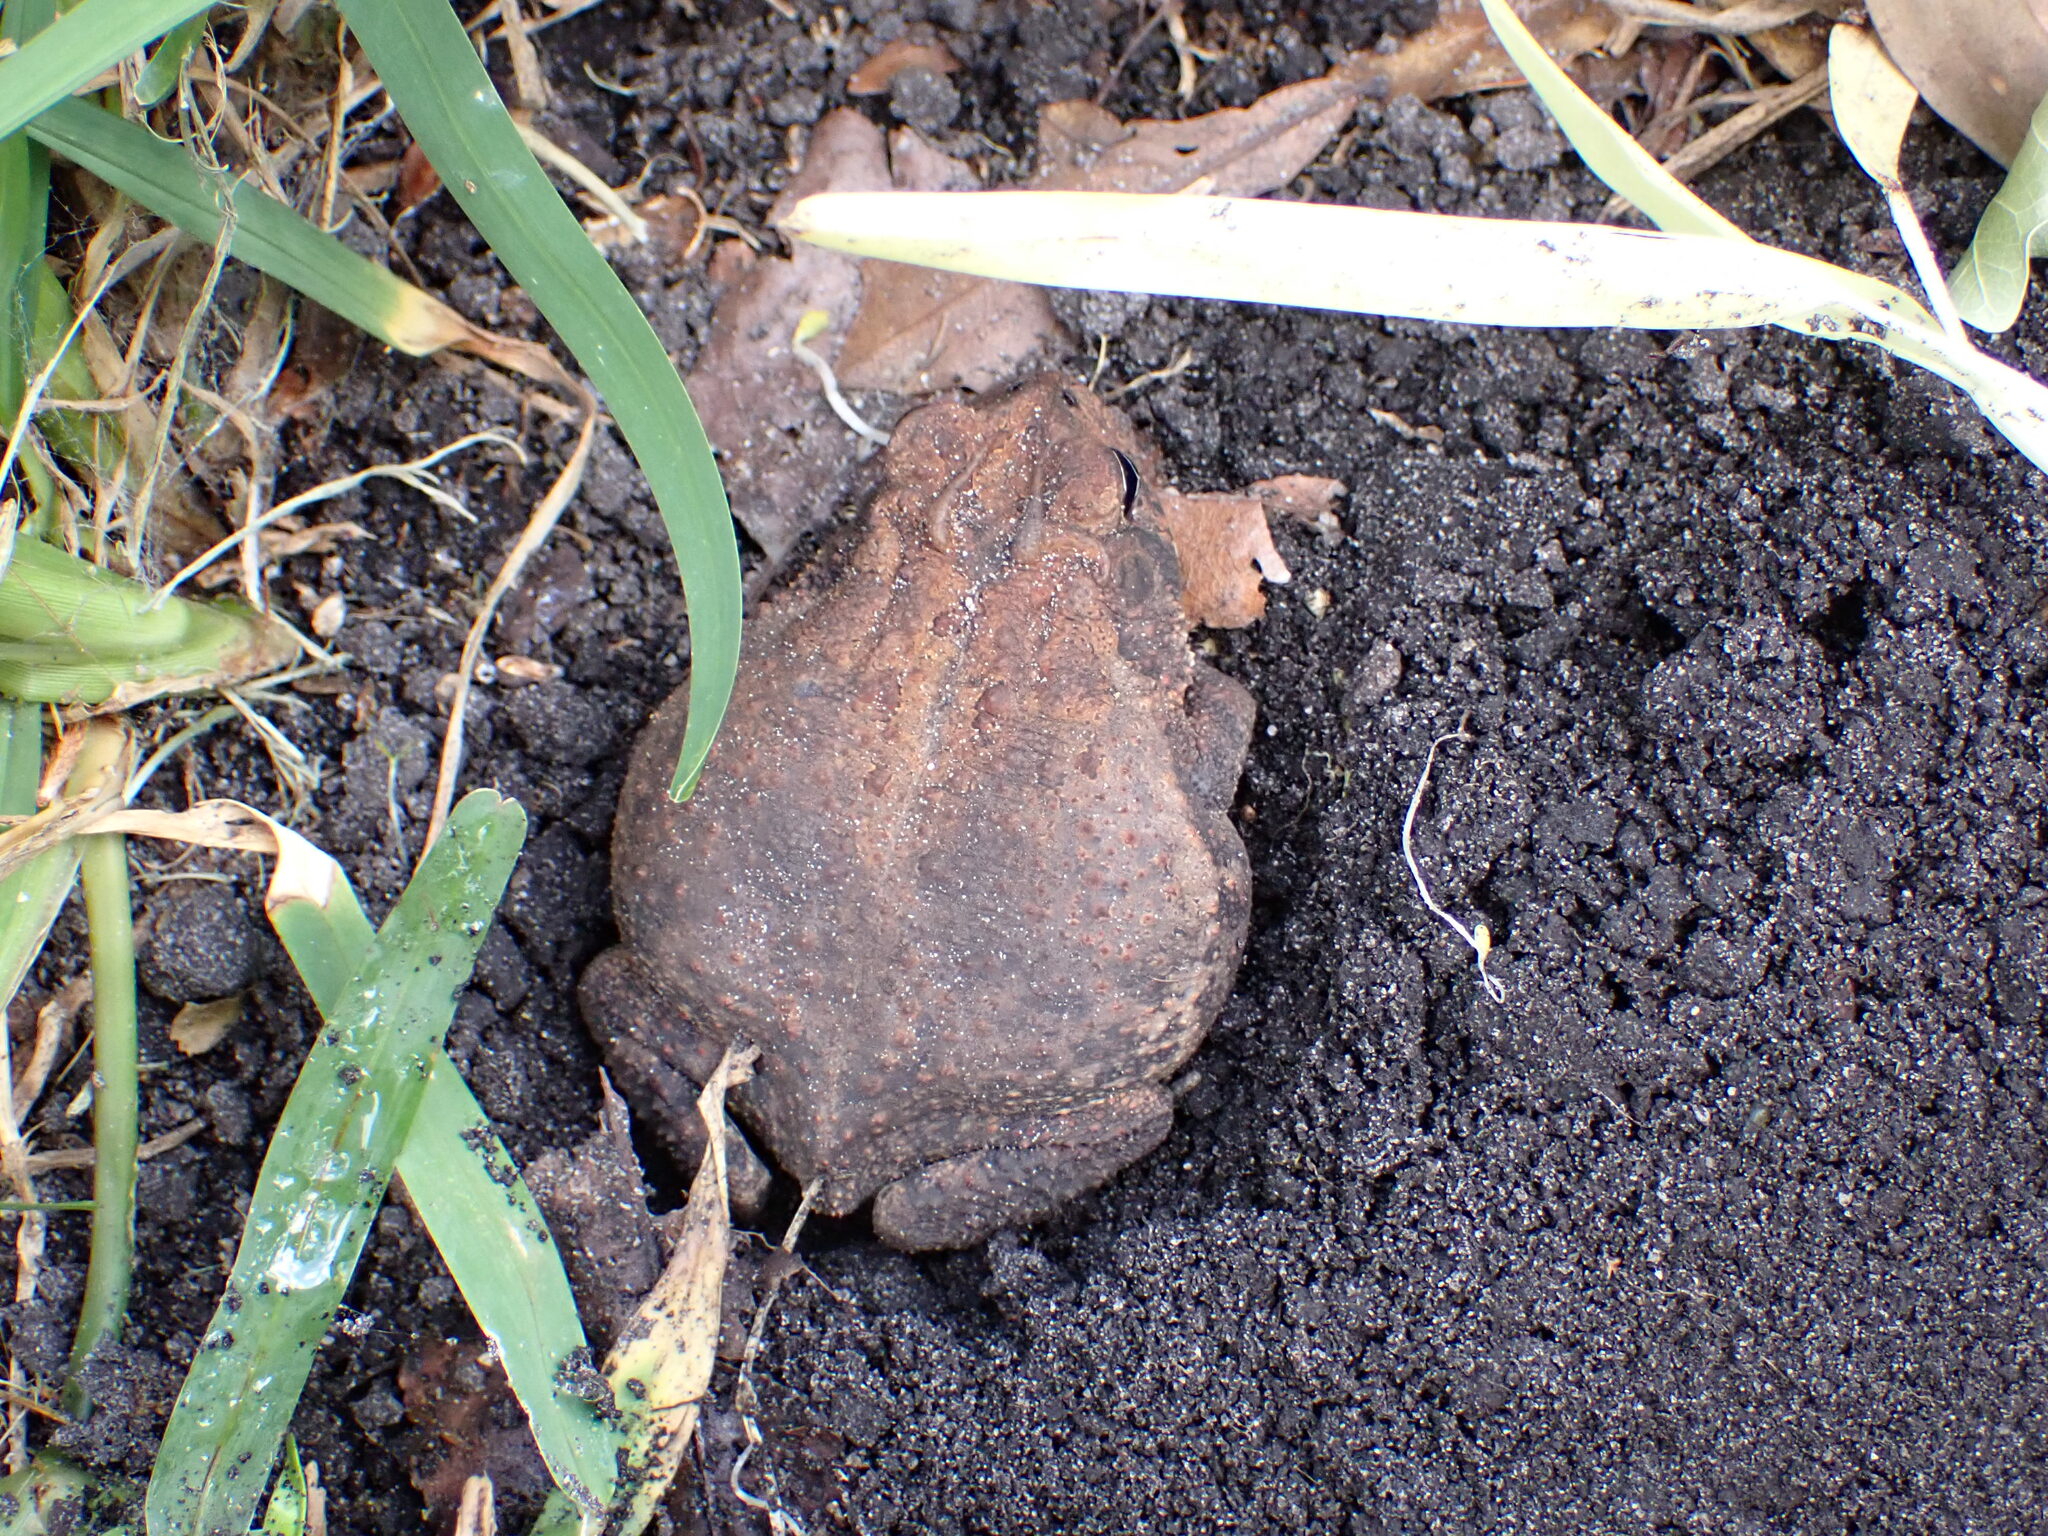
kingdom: Animalia
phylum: Chordata
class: Amphibia
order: Anura
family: Bufonidae
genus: Anaxyrus
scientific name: Anaxyrus terrestris
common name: Southern toad
